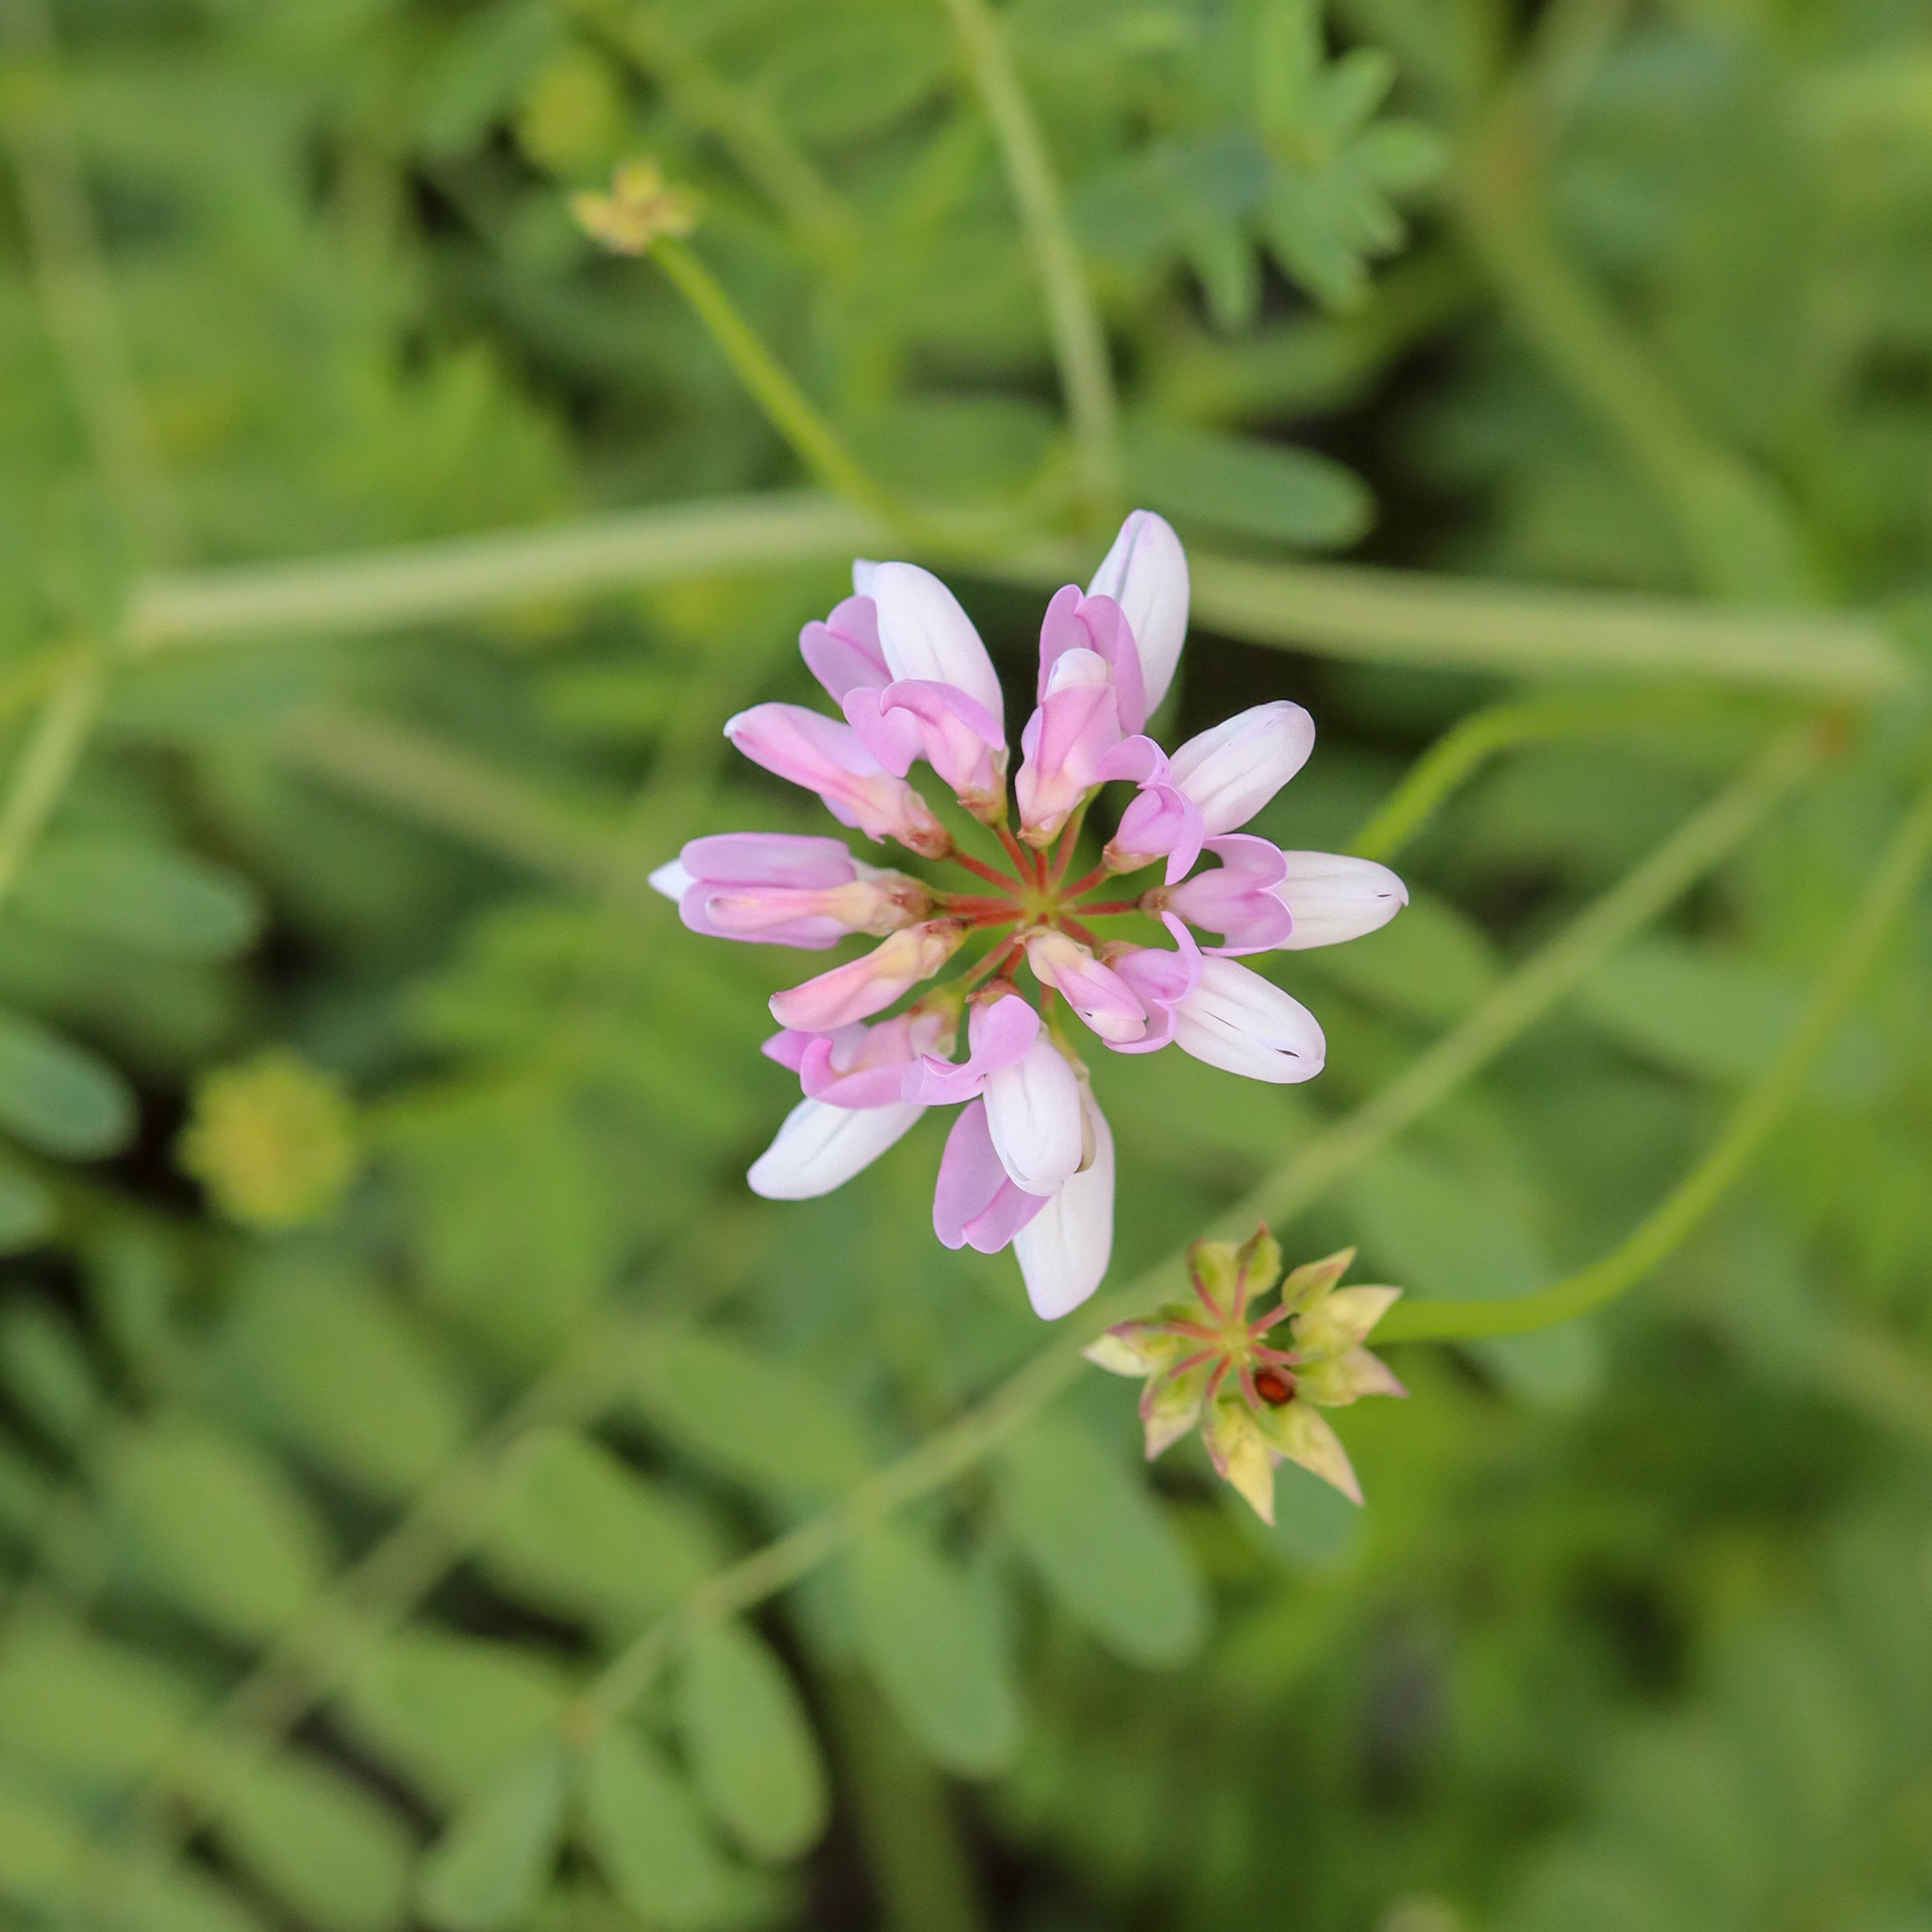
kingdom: Plantae
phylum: Tracheophyta
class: Magnoliopsida
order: Fabales
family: Fabaceae
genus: Coronilla
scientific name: Coronilla varia
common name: Crownvetch
